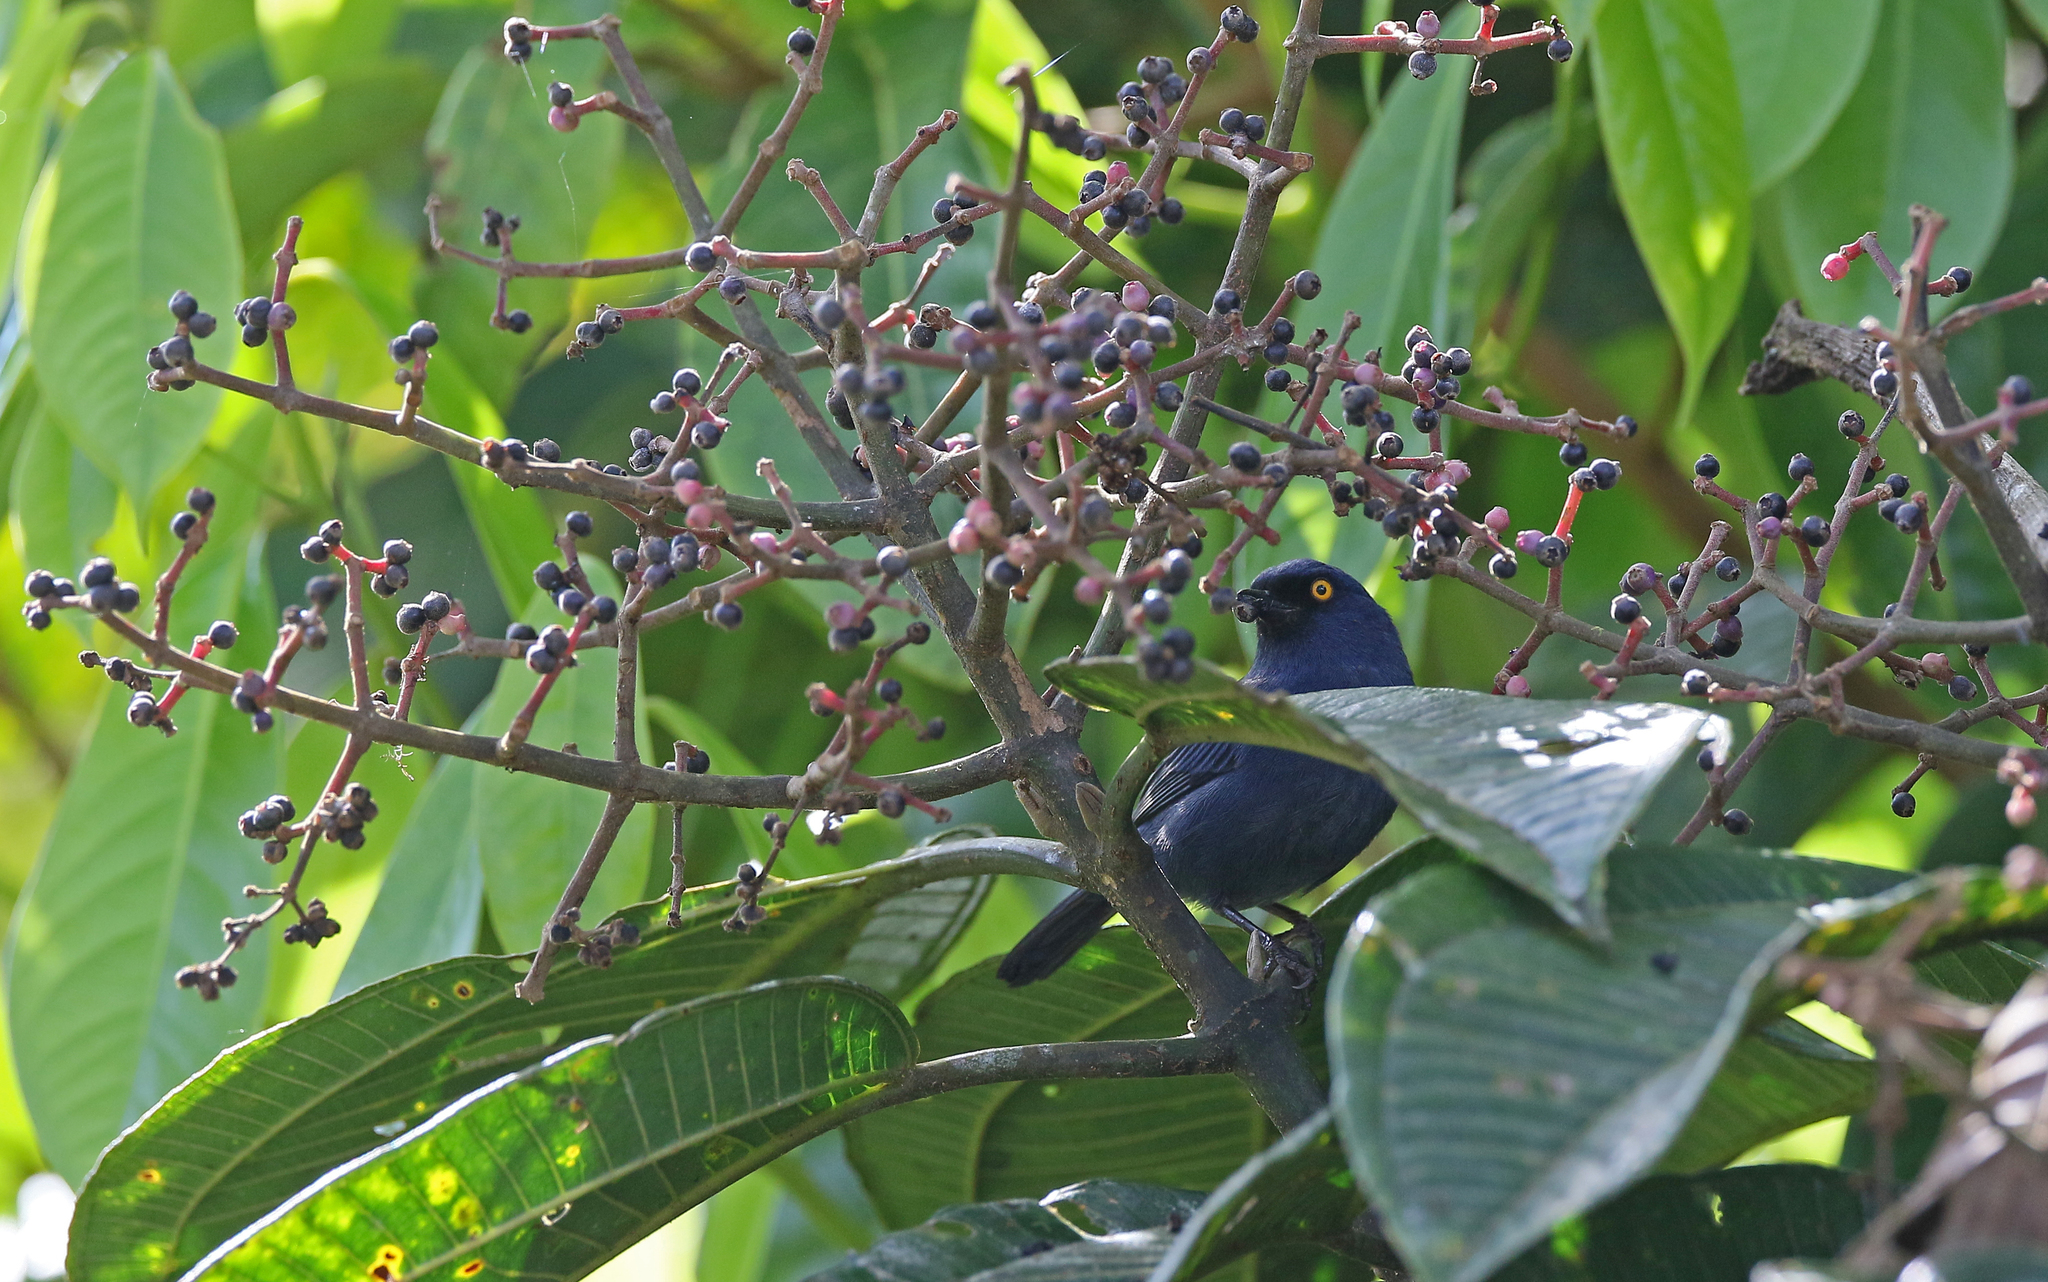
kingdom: Animalia
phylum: Chordata
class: Aves
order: Passeriformes
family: Thraupidae
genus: Diglossa
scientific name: Diglossa glauca
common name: Deep-blue flowerpiercer
